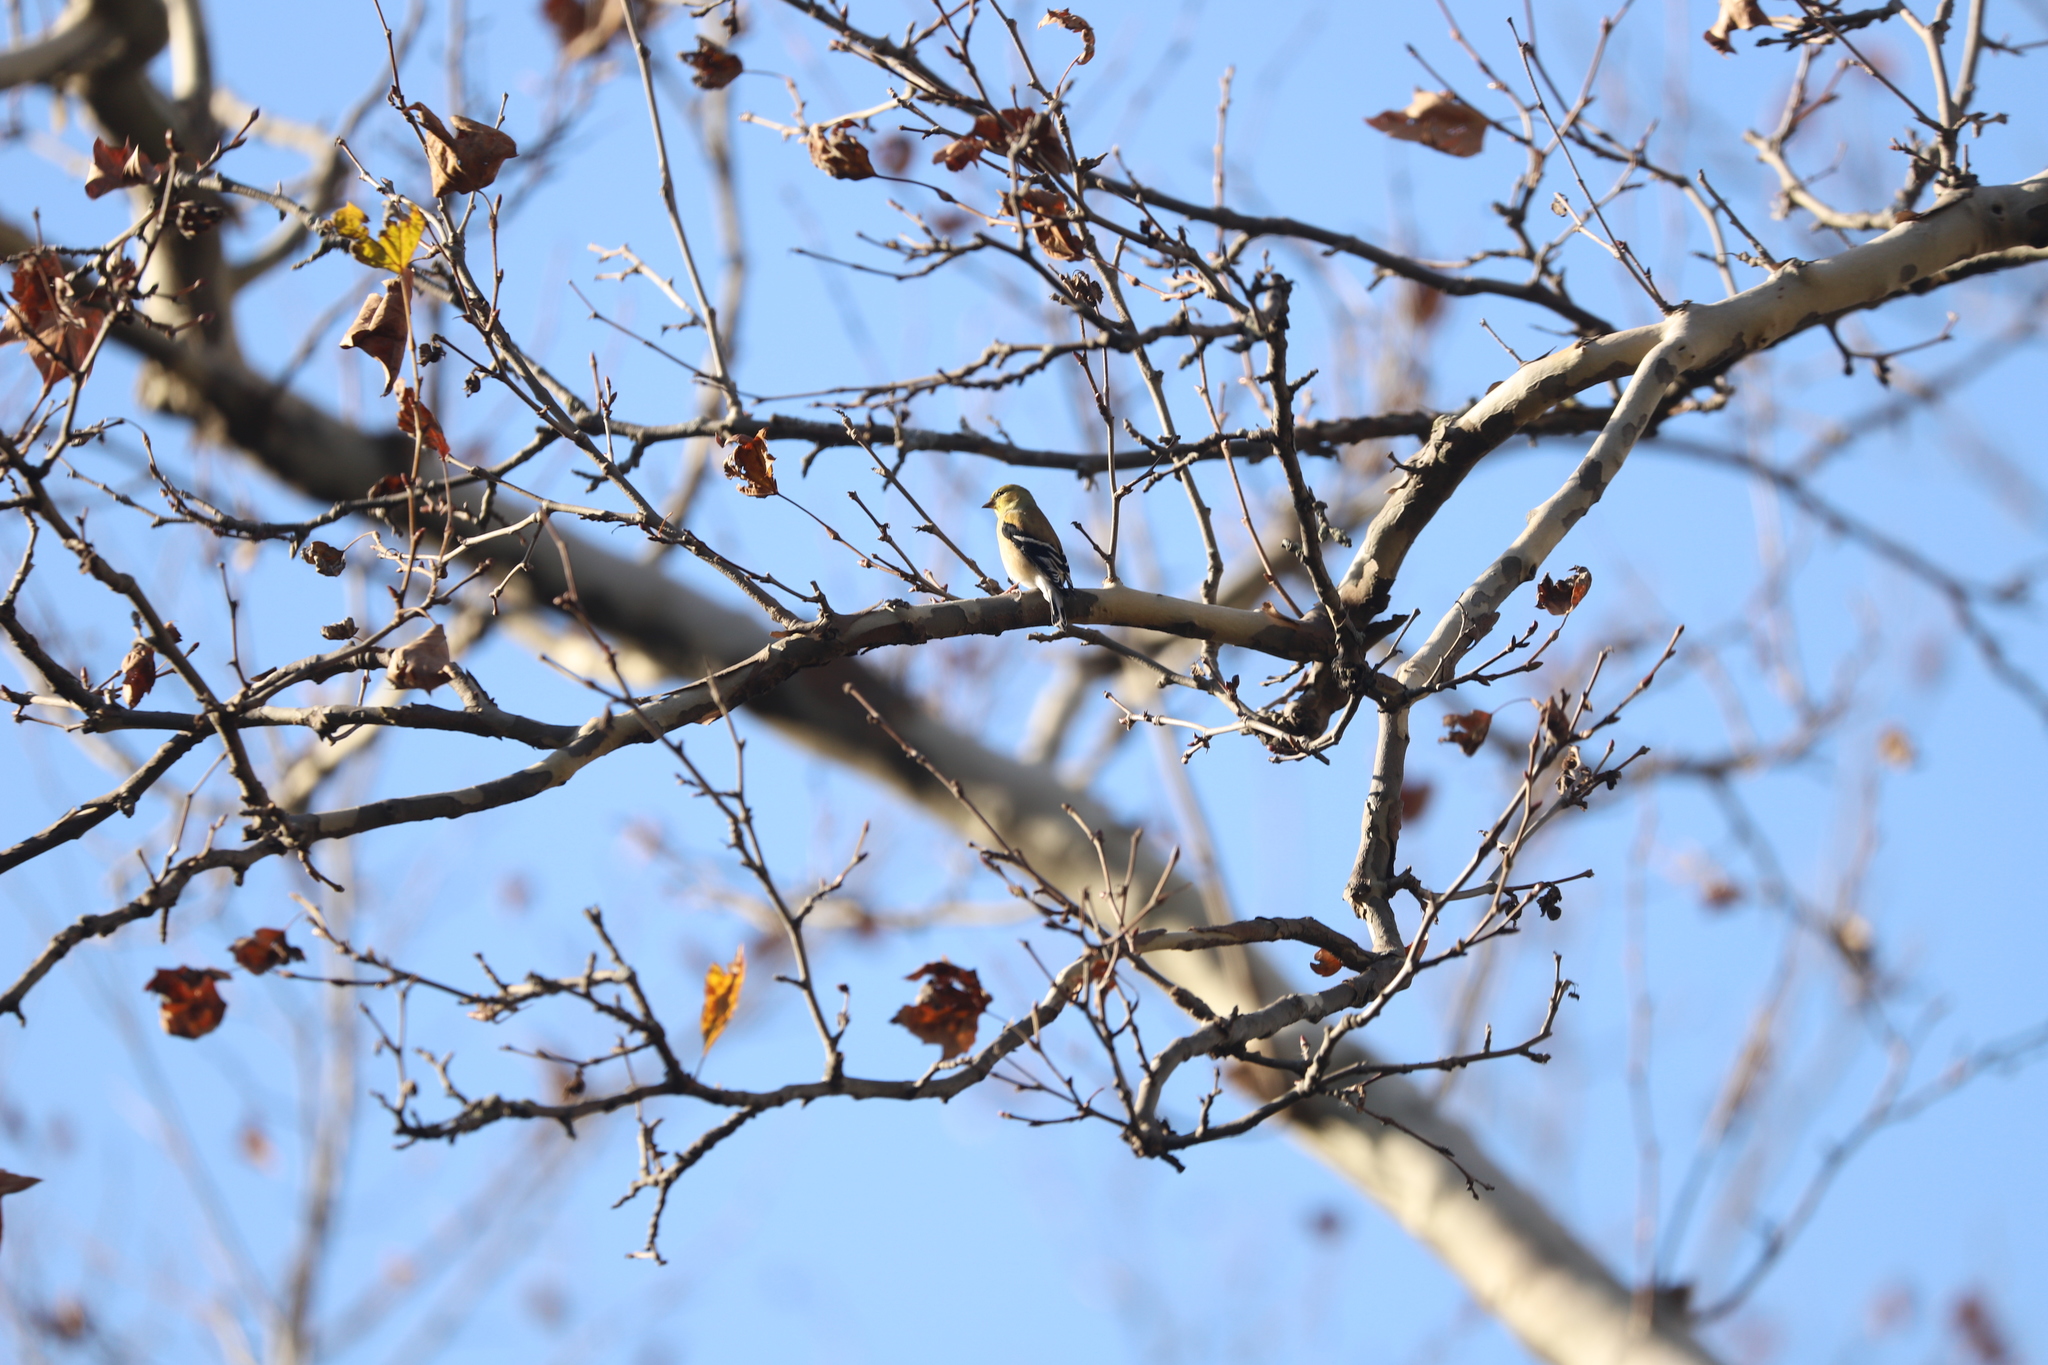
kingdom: Animalia
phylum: Chordata
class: Aves
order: Passeriformes
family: Fringillidae
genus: Spinus
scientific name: Spinus tristis
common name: American goldfinch
